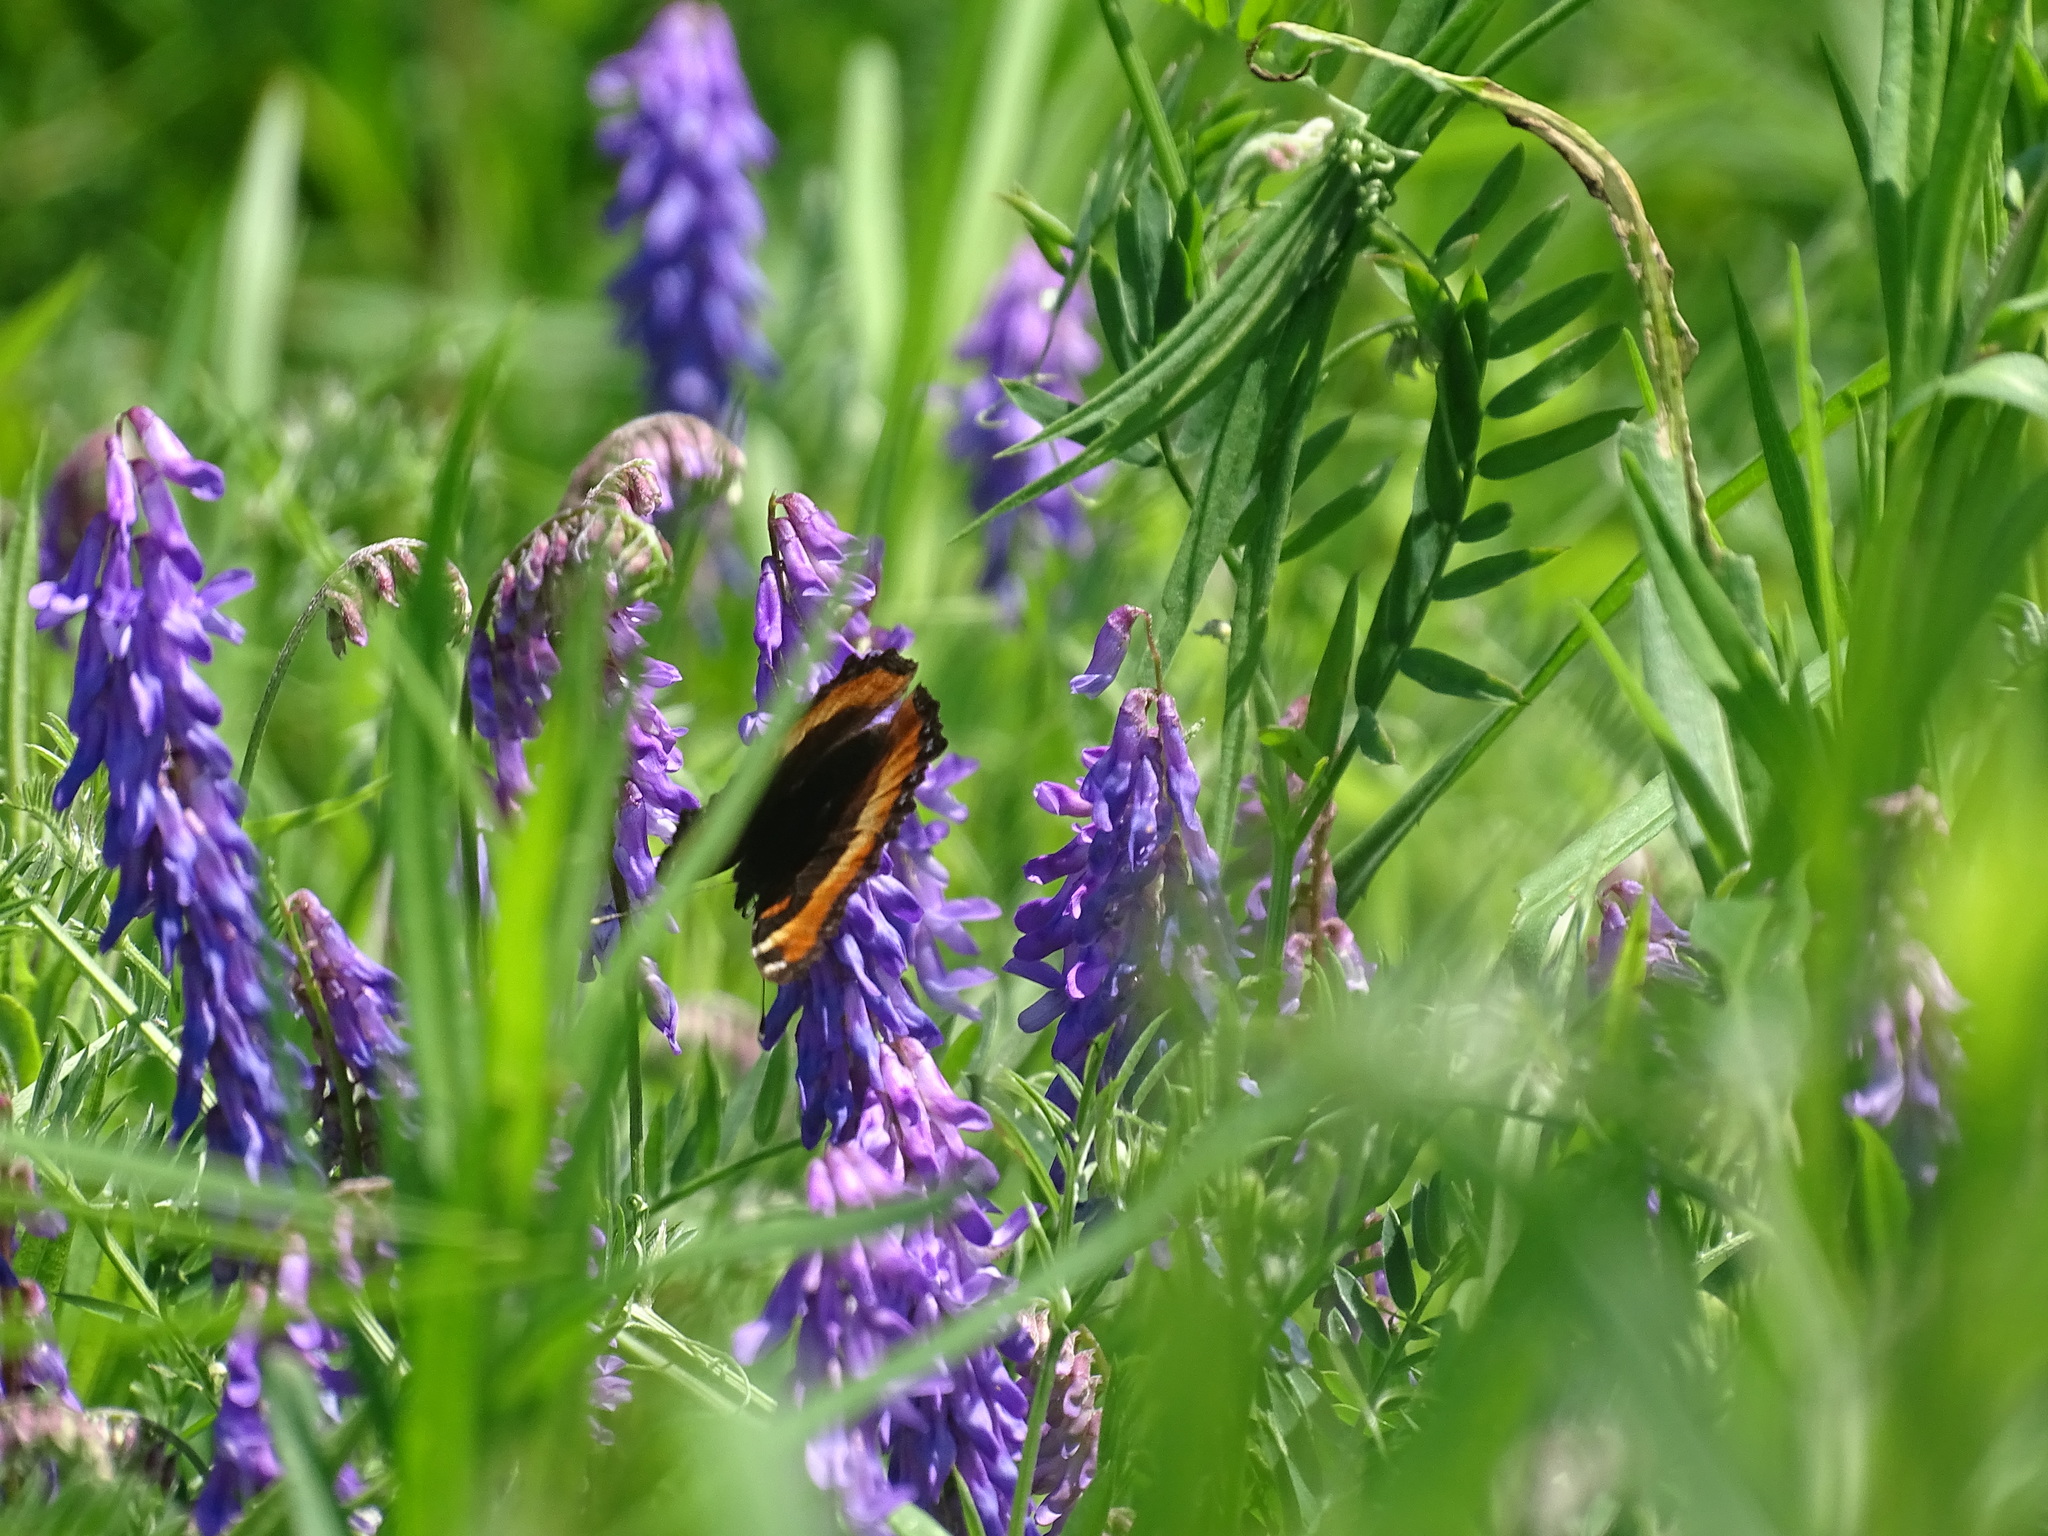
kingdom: Animalia
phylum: Arthropoda
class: Insecta
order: Lepidoptera
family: Nymphalidae
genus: Aglais
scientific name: Aglais milberti
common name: Milbert's tortoiseshell
